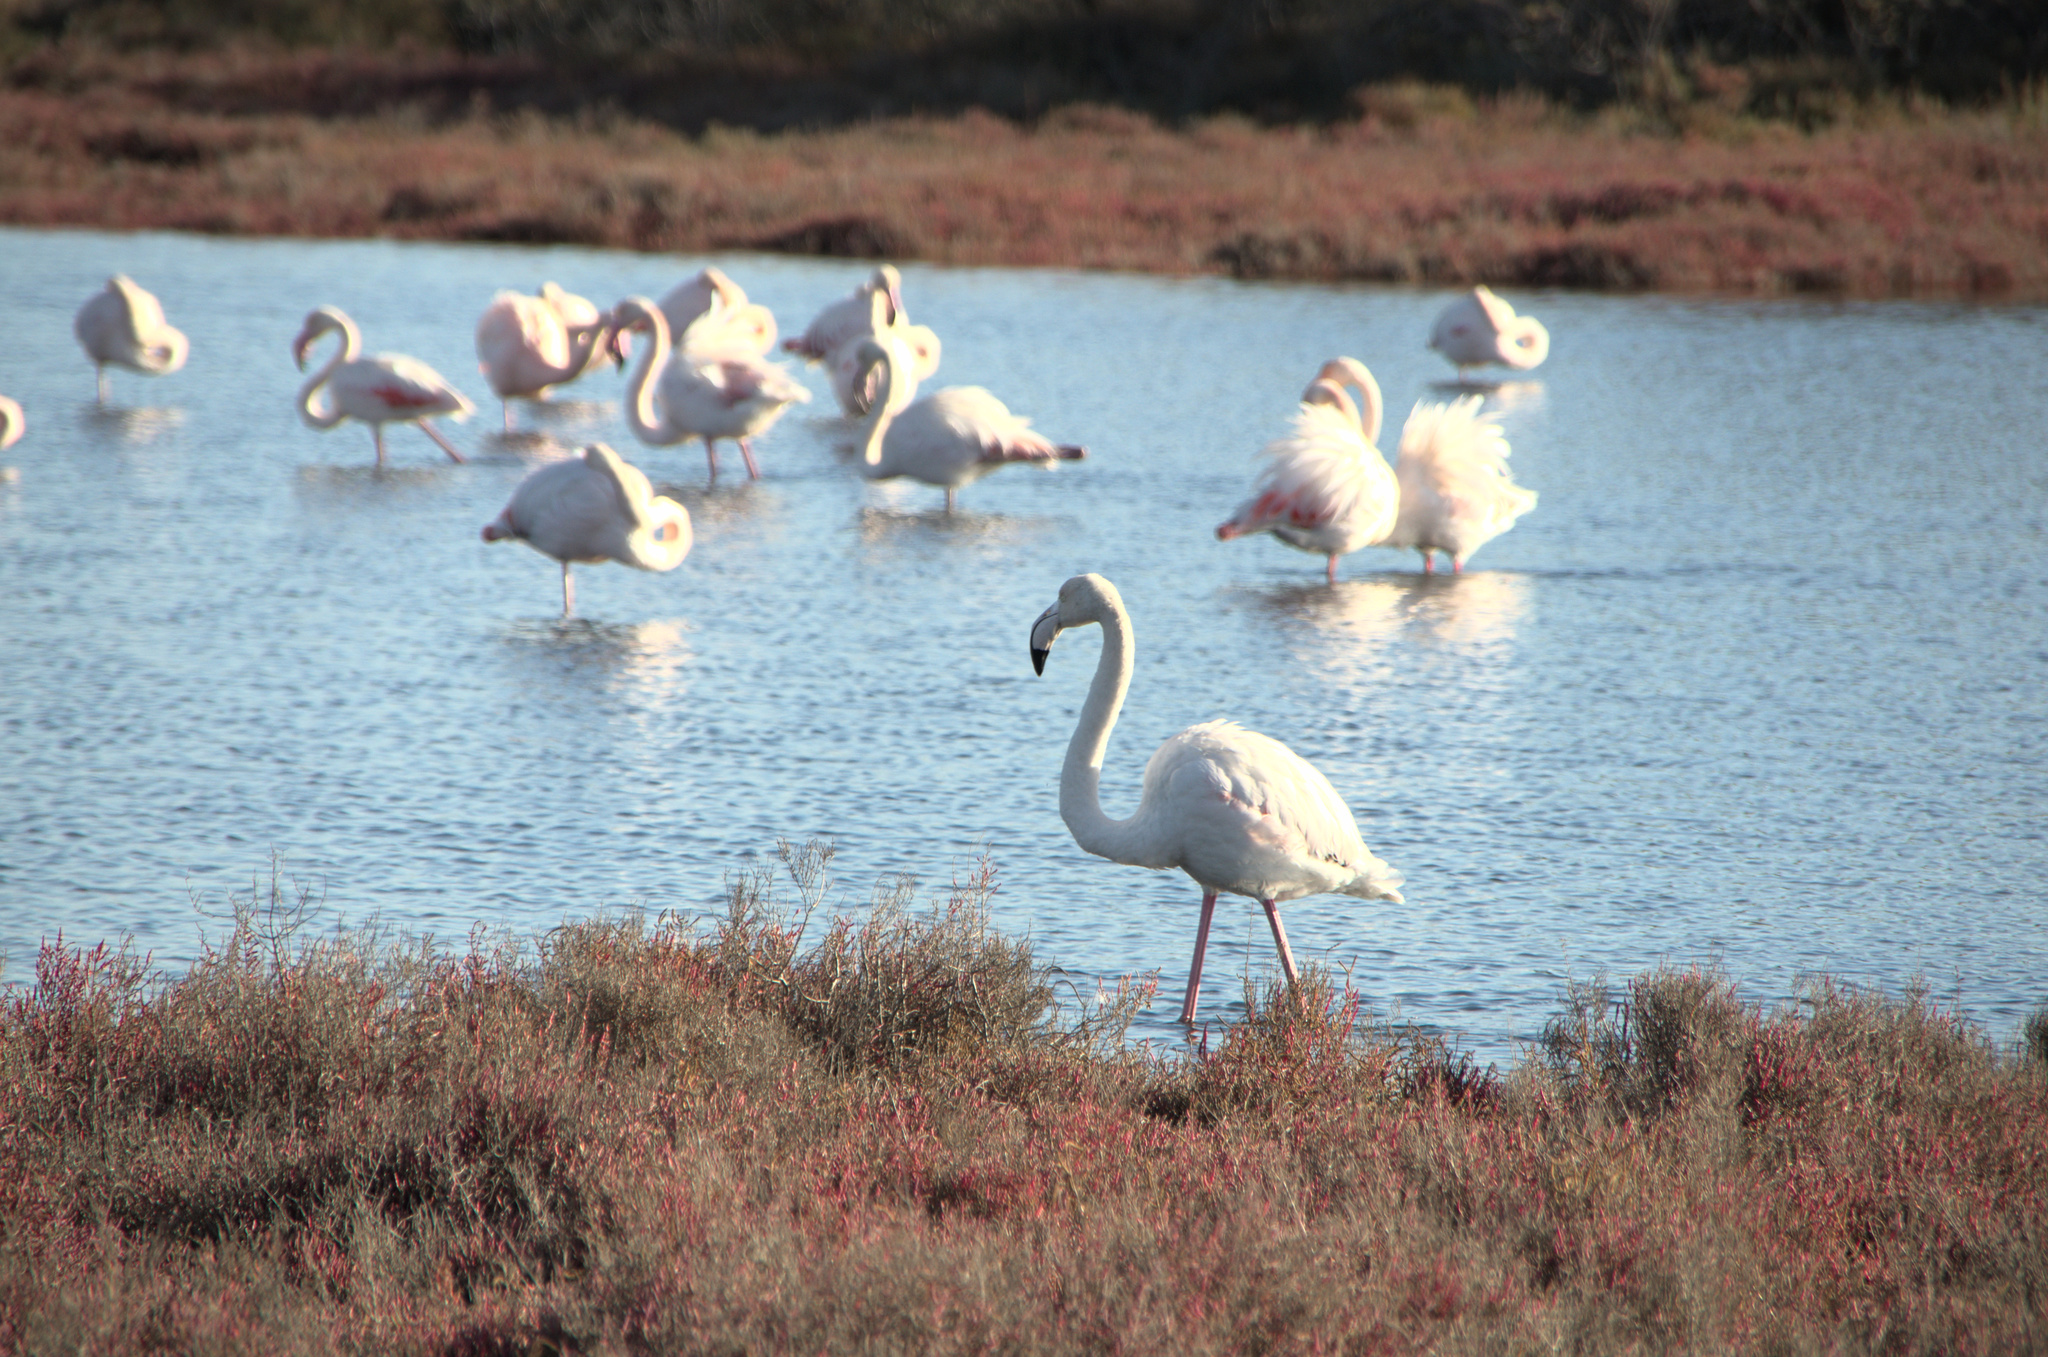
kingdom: Animalia
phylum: Chordata
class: Aves
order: Phoenicopteriformes
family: Phoenicopteridae
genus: Phoenicopterus
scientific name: Phoenicopterus roseus
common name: Greater flamingo
